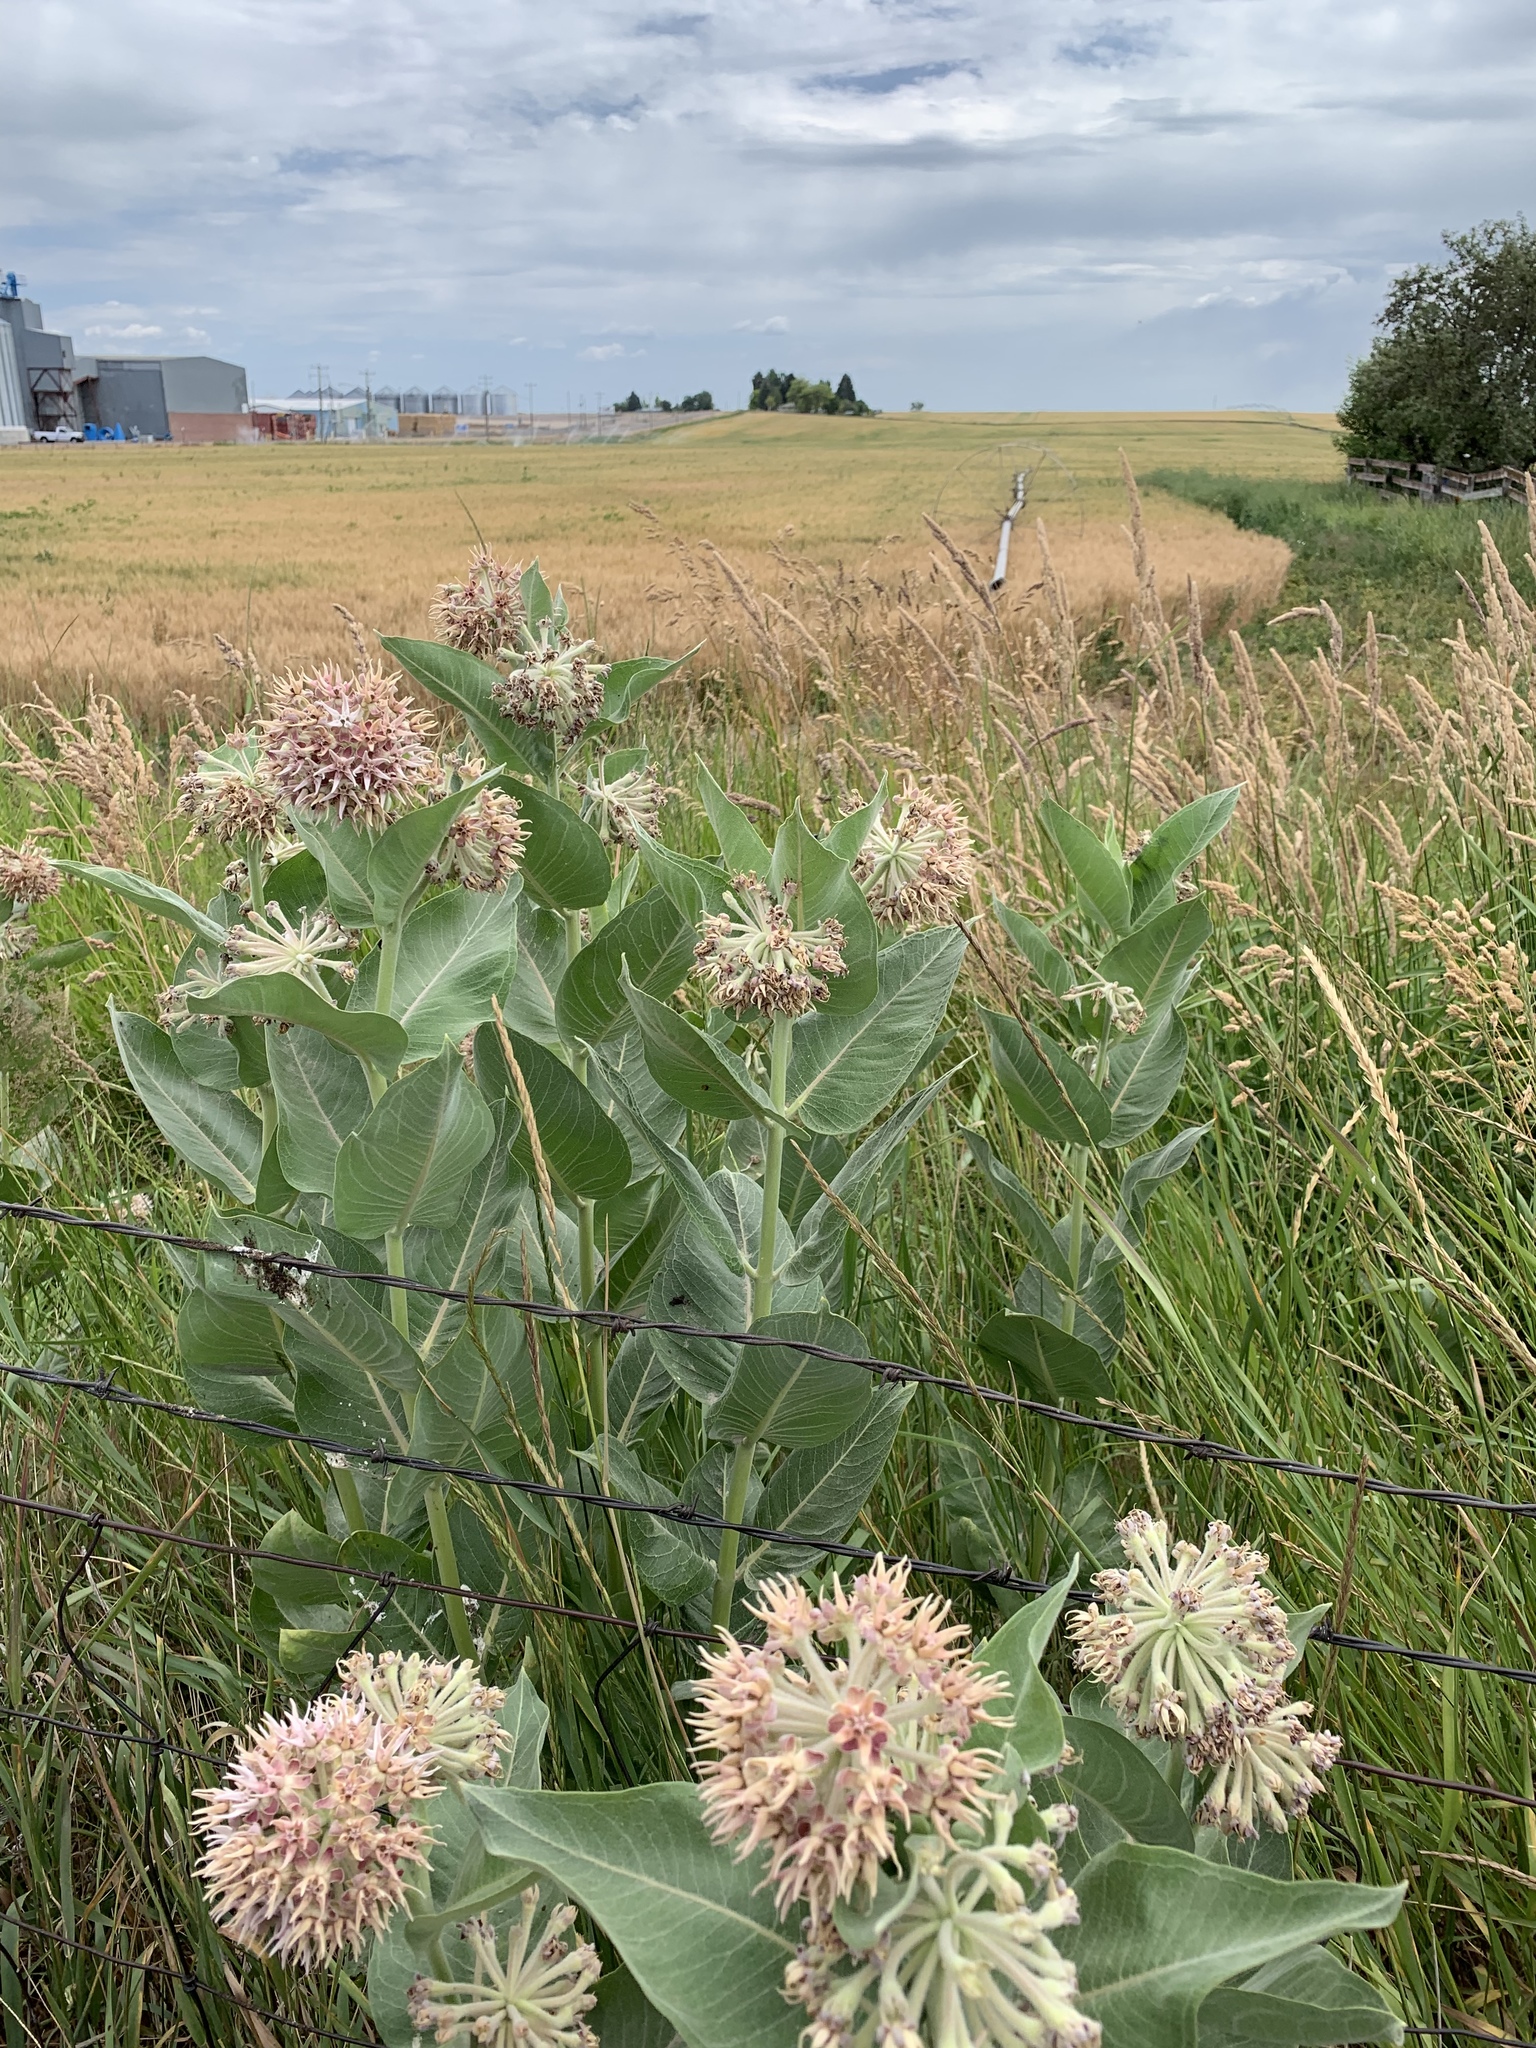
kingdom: Plantae
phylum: Tracheophyta
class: Magnoliopsida
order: Gentianales
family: Apocynaceae
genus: Asclepias
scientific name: Asclepias speciosa
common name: Showy milkweed
